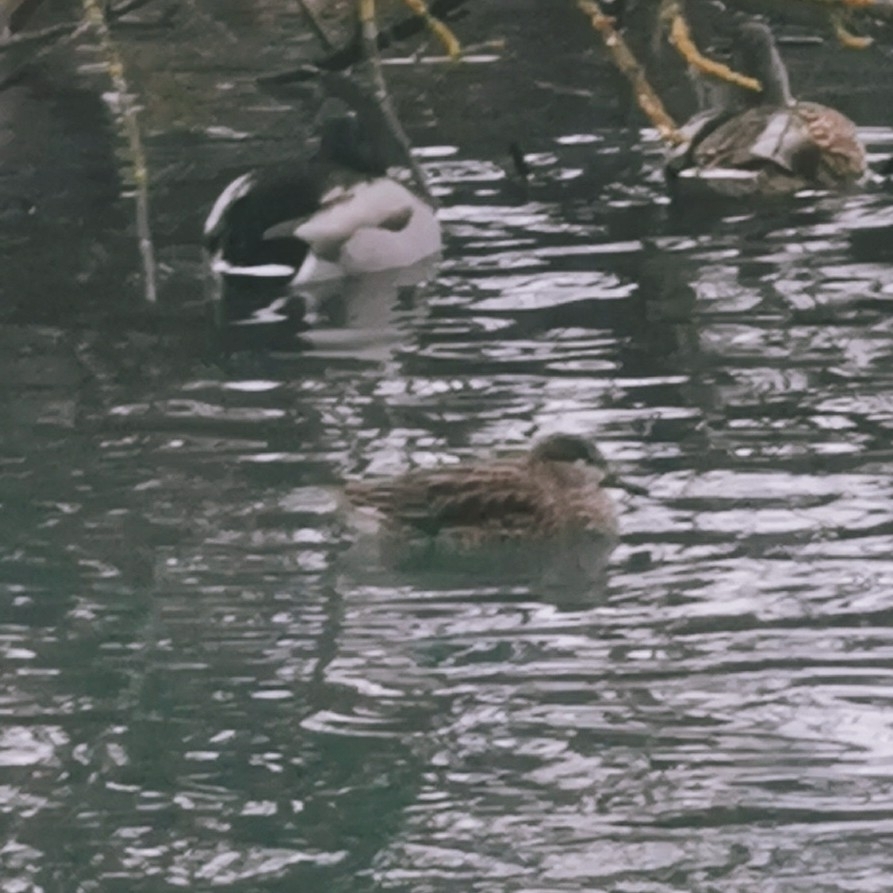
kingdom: Animalia
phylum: Chordata
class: Aves
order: Anseriformes
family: Anatidae
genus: Anas
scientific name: Anas crecca
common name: Eurasian teal
